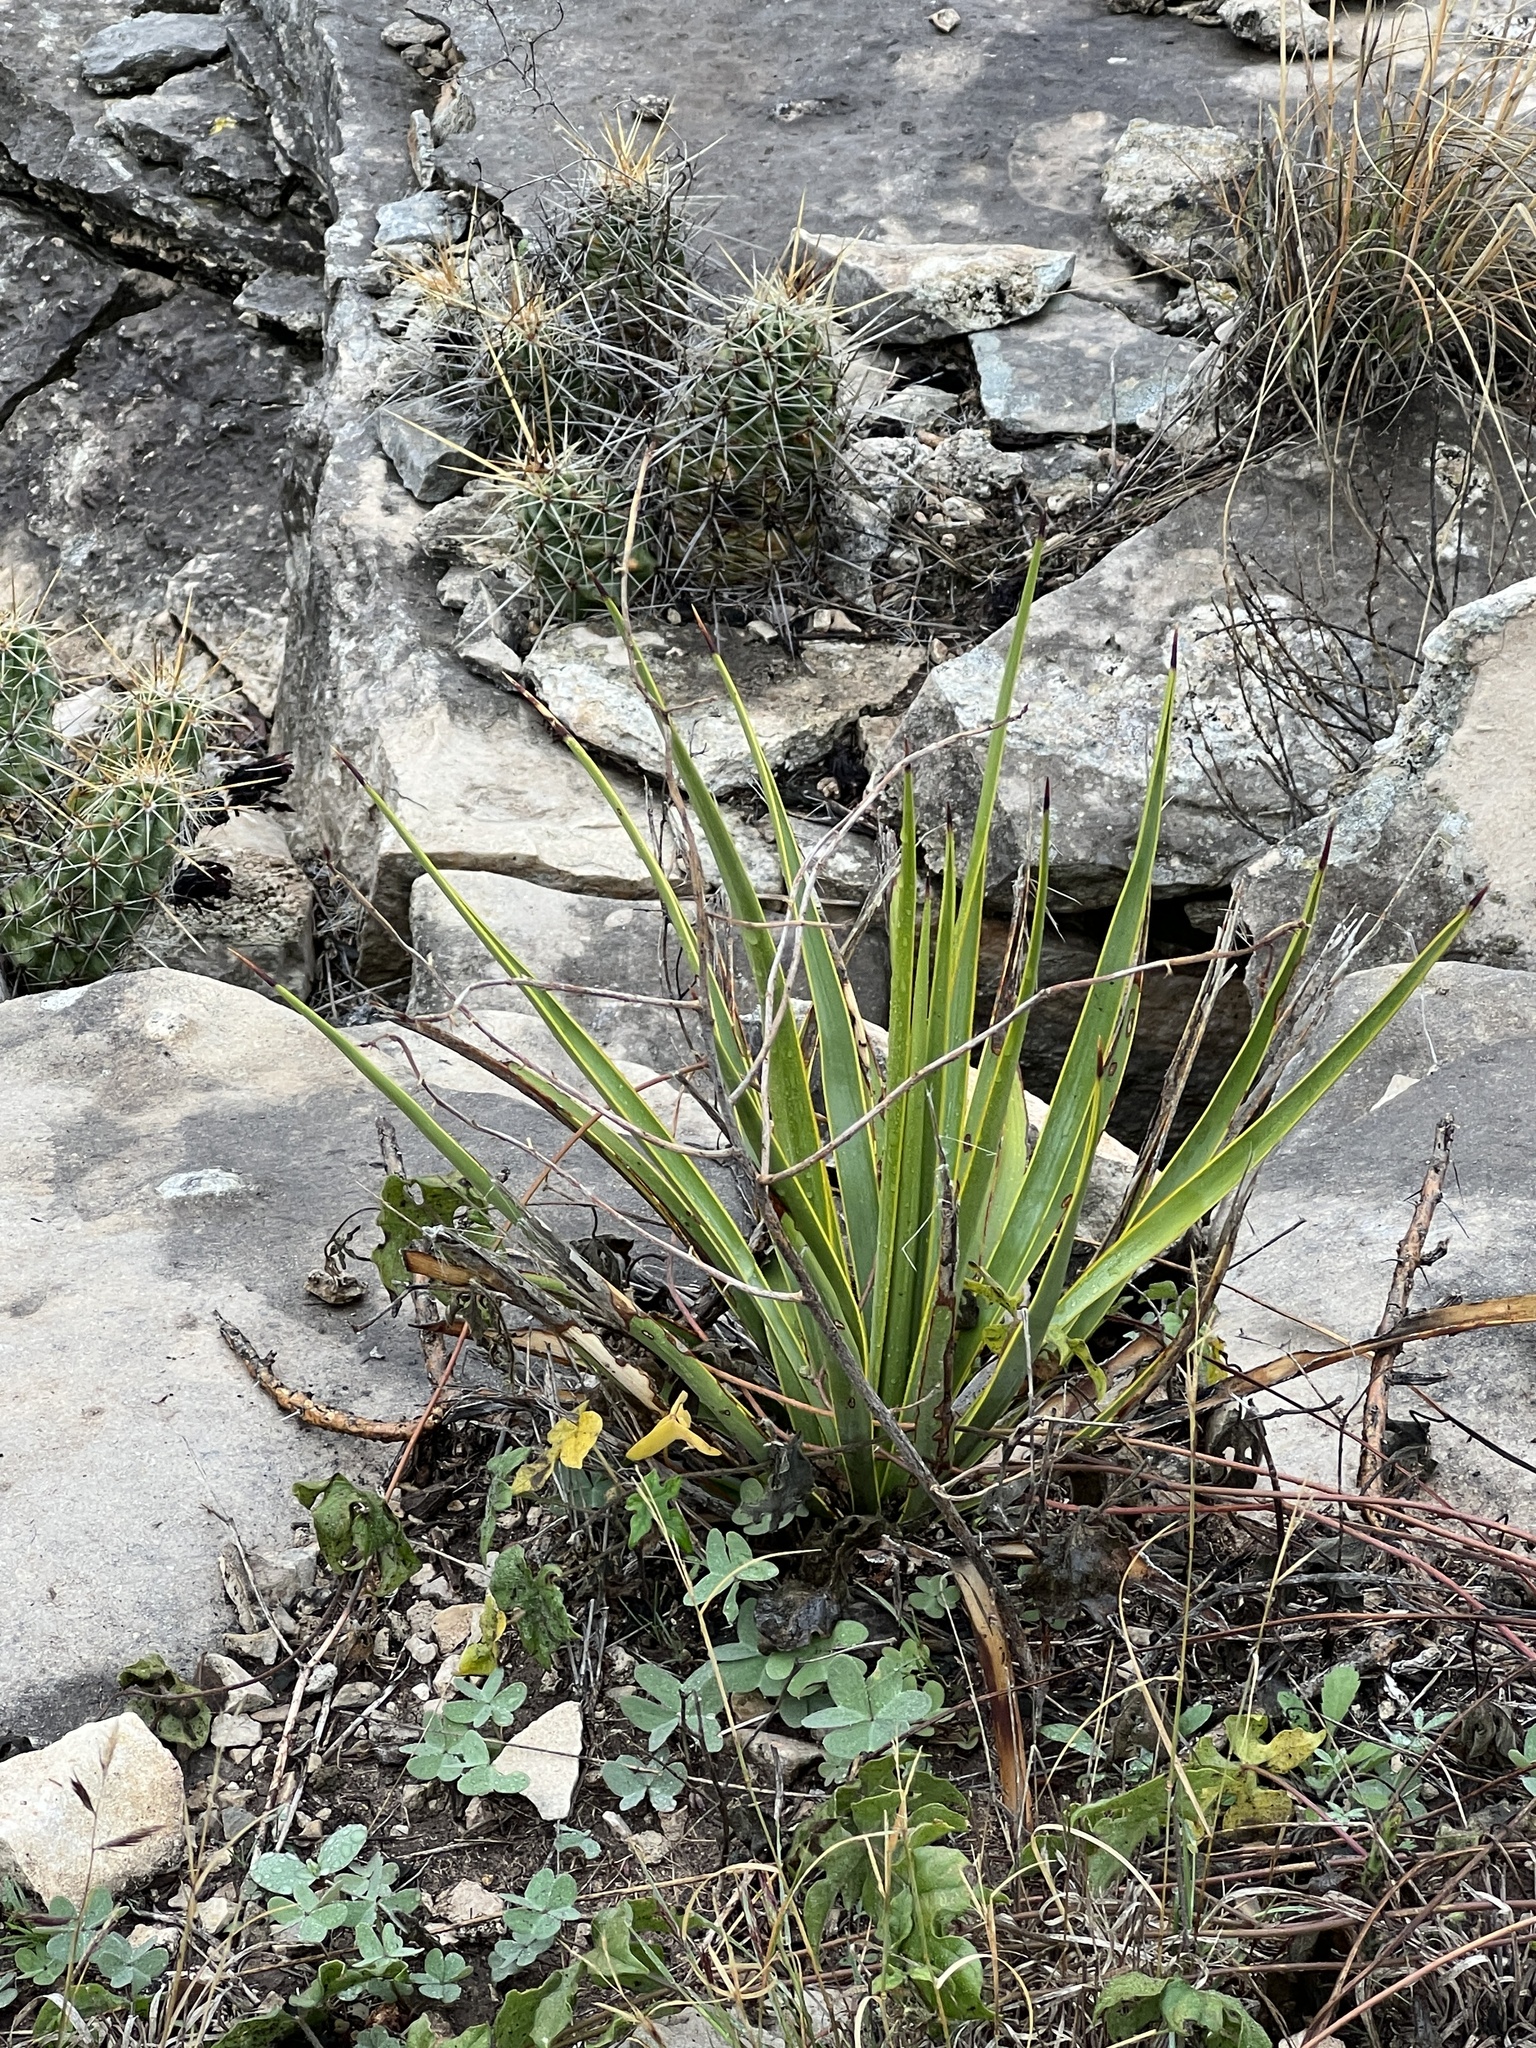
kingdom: Plantae
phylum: Tracheophyta
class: Liliopsida
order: Asparagales
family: Asparagaceae
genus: Yucca
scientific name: Yucca reverchonii
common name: San angelo yucca
